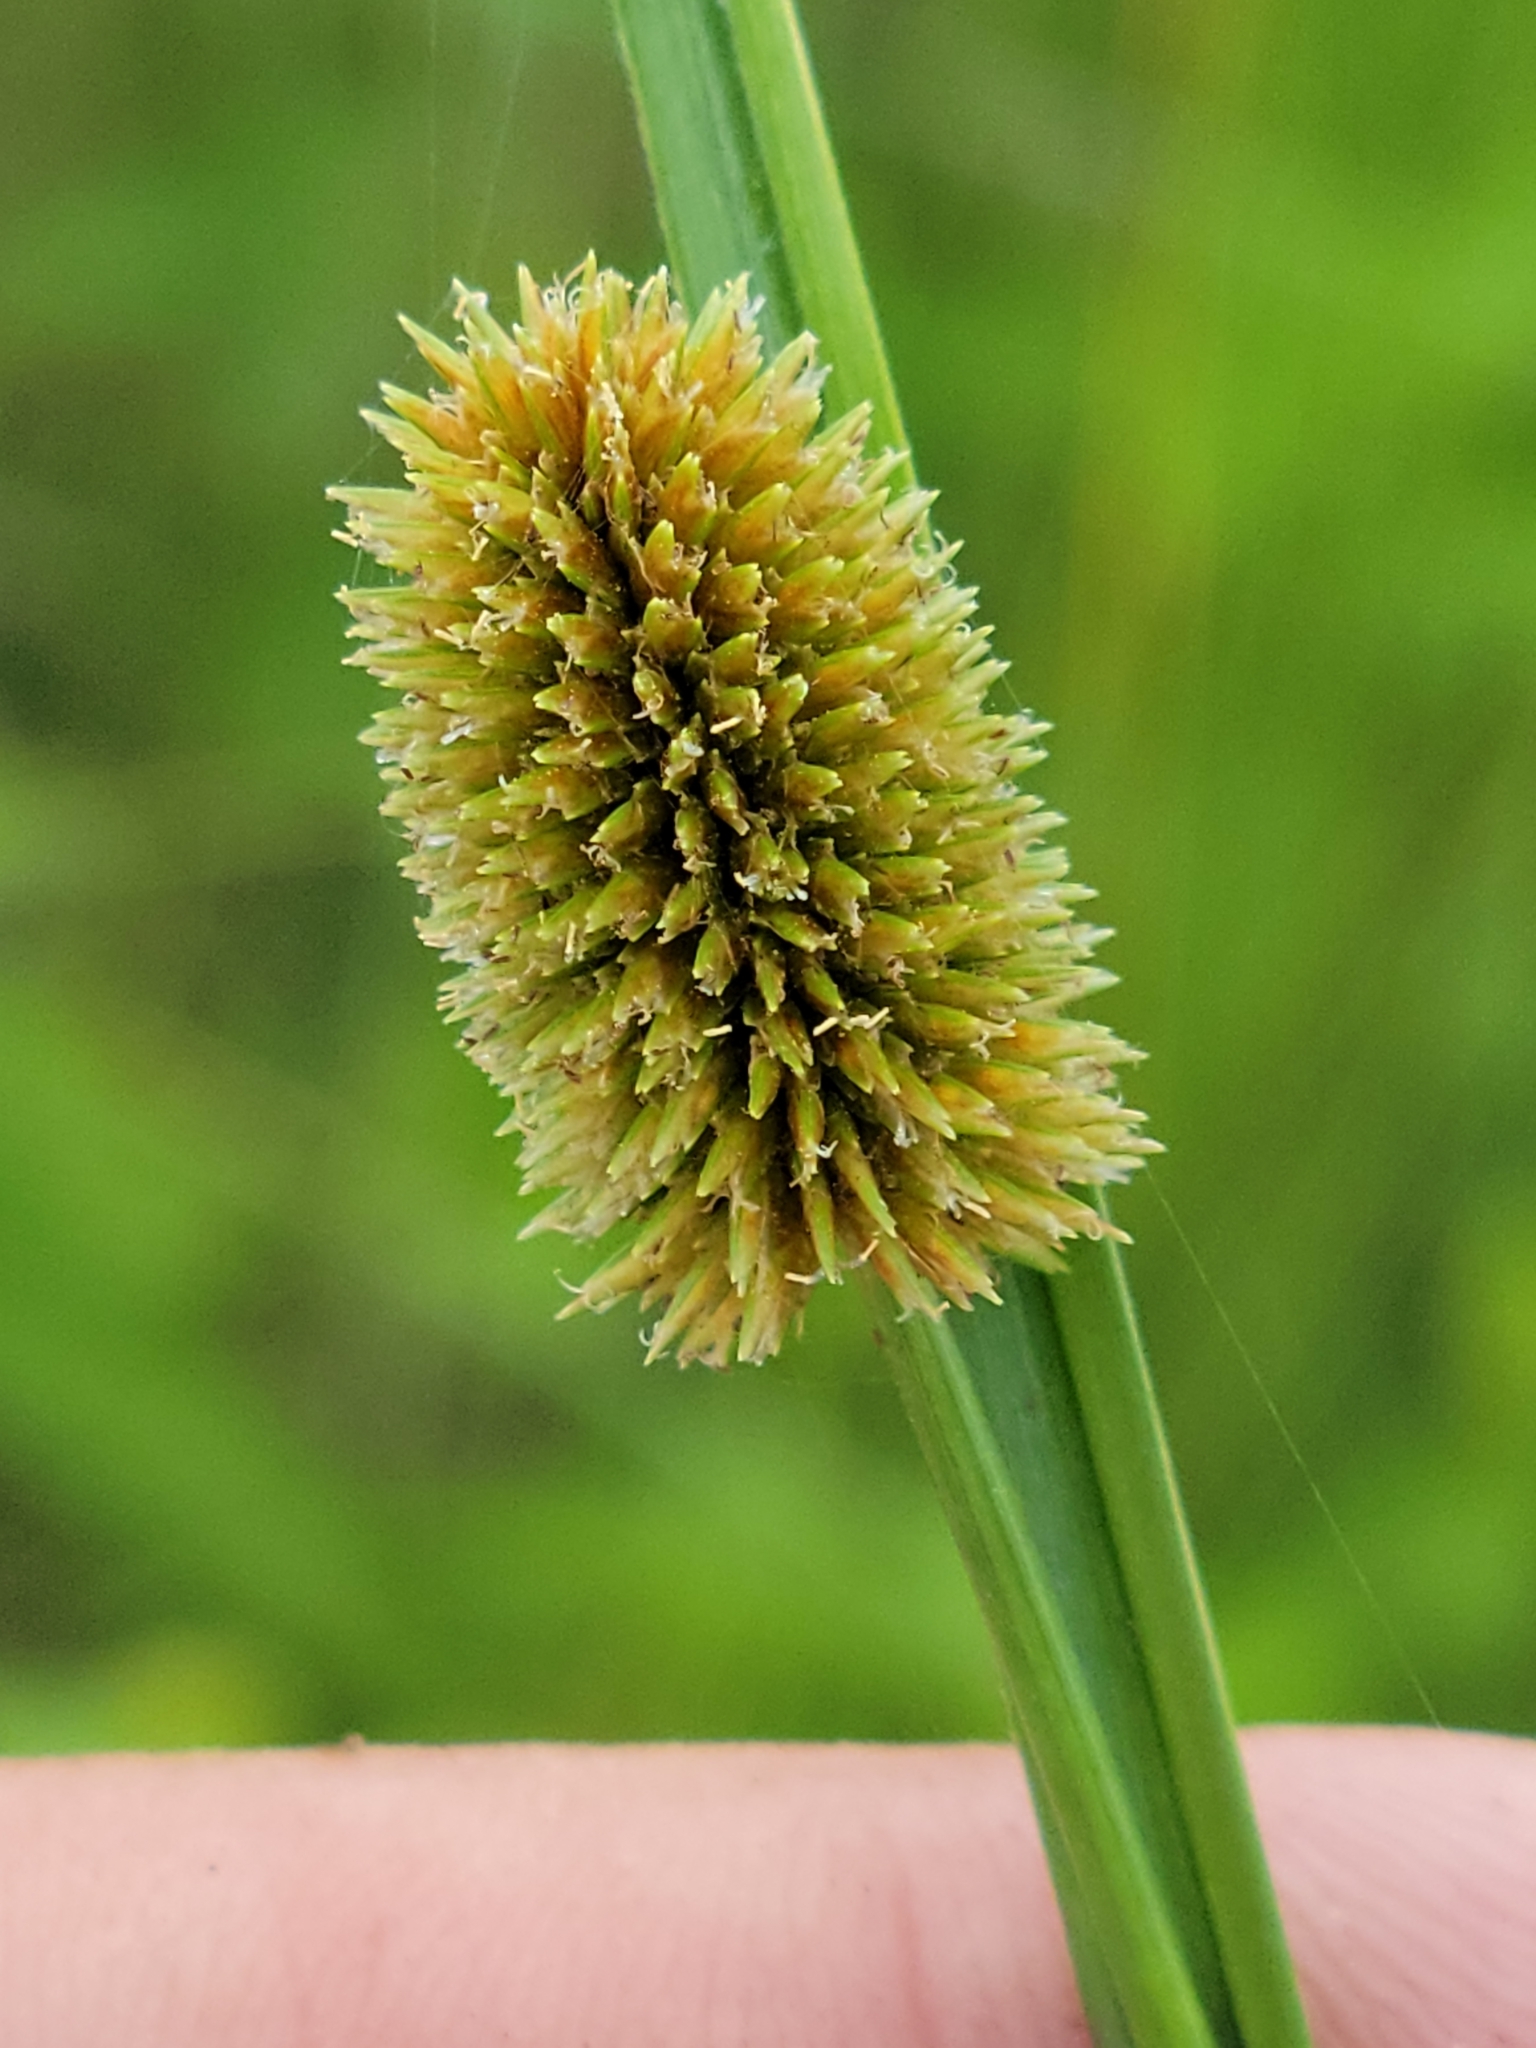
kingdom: Plantae
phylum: Tracheophyta
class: Liliopsida
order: Poales
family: Cyperaceae
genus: Cyperus
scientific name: Cyperus ovatus
